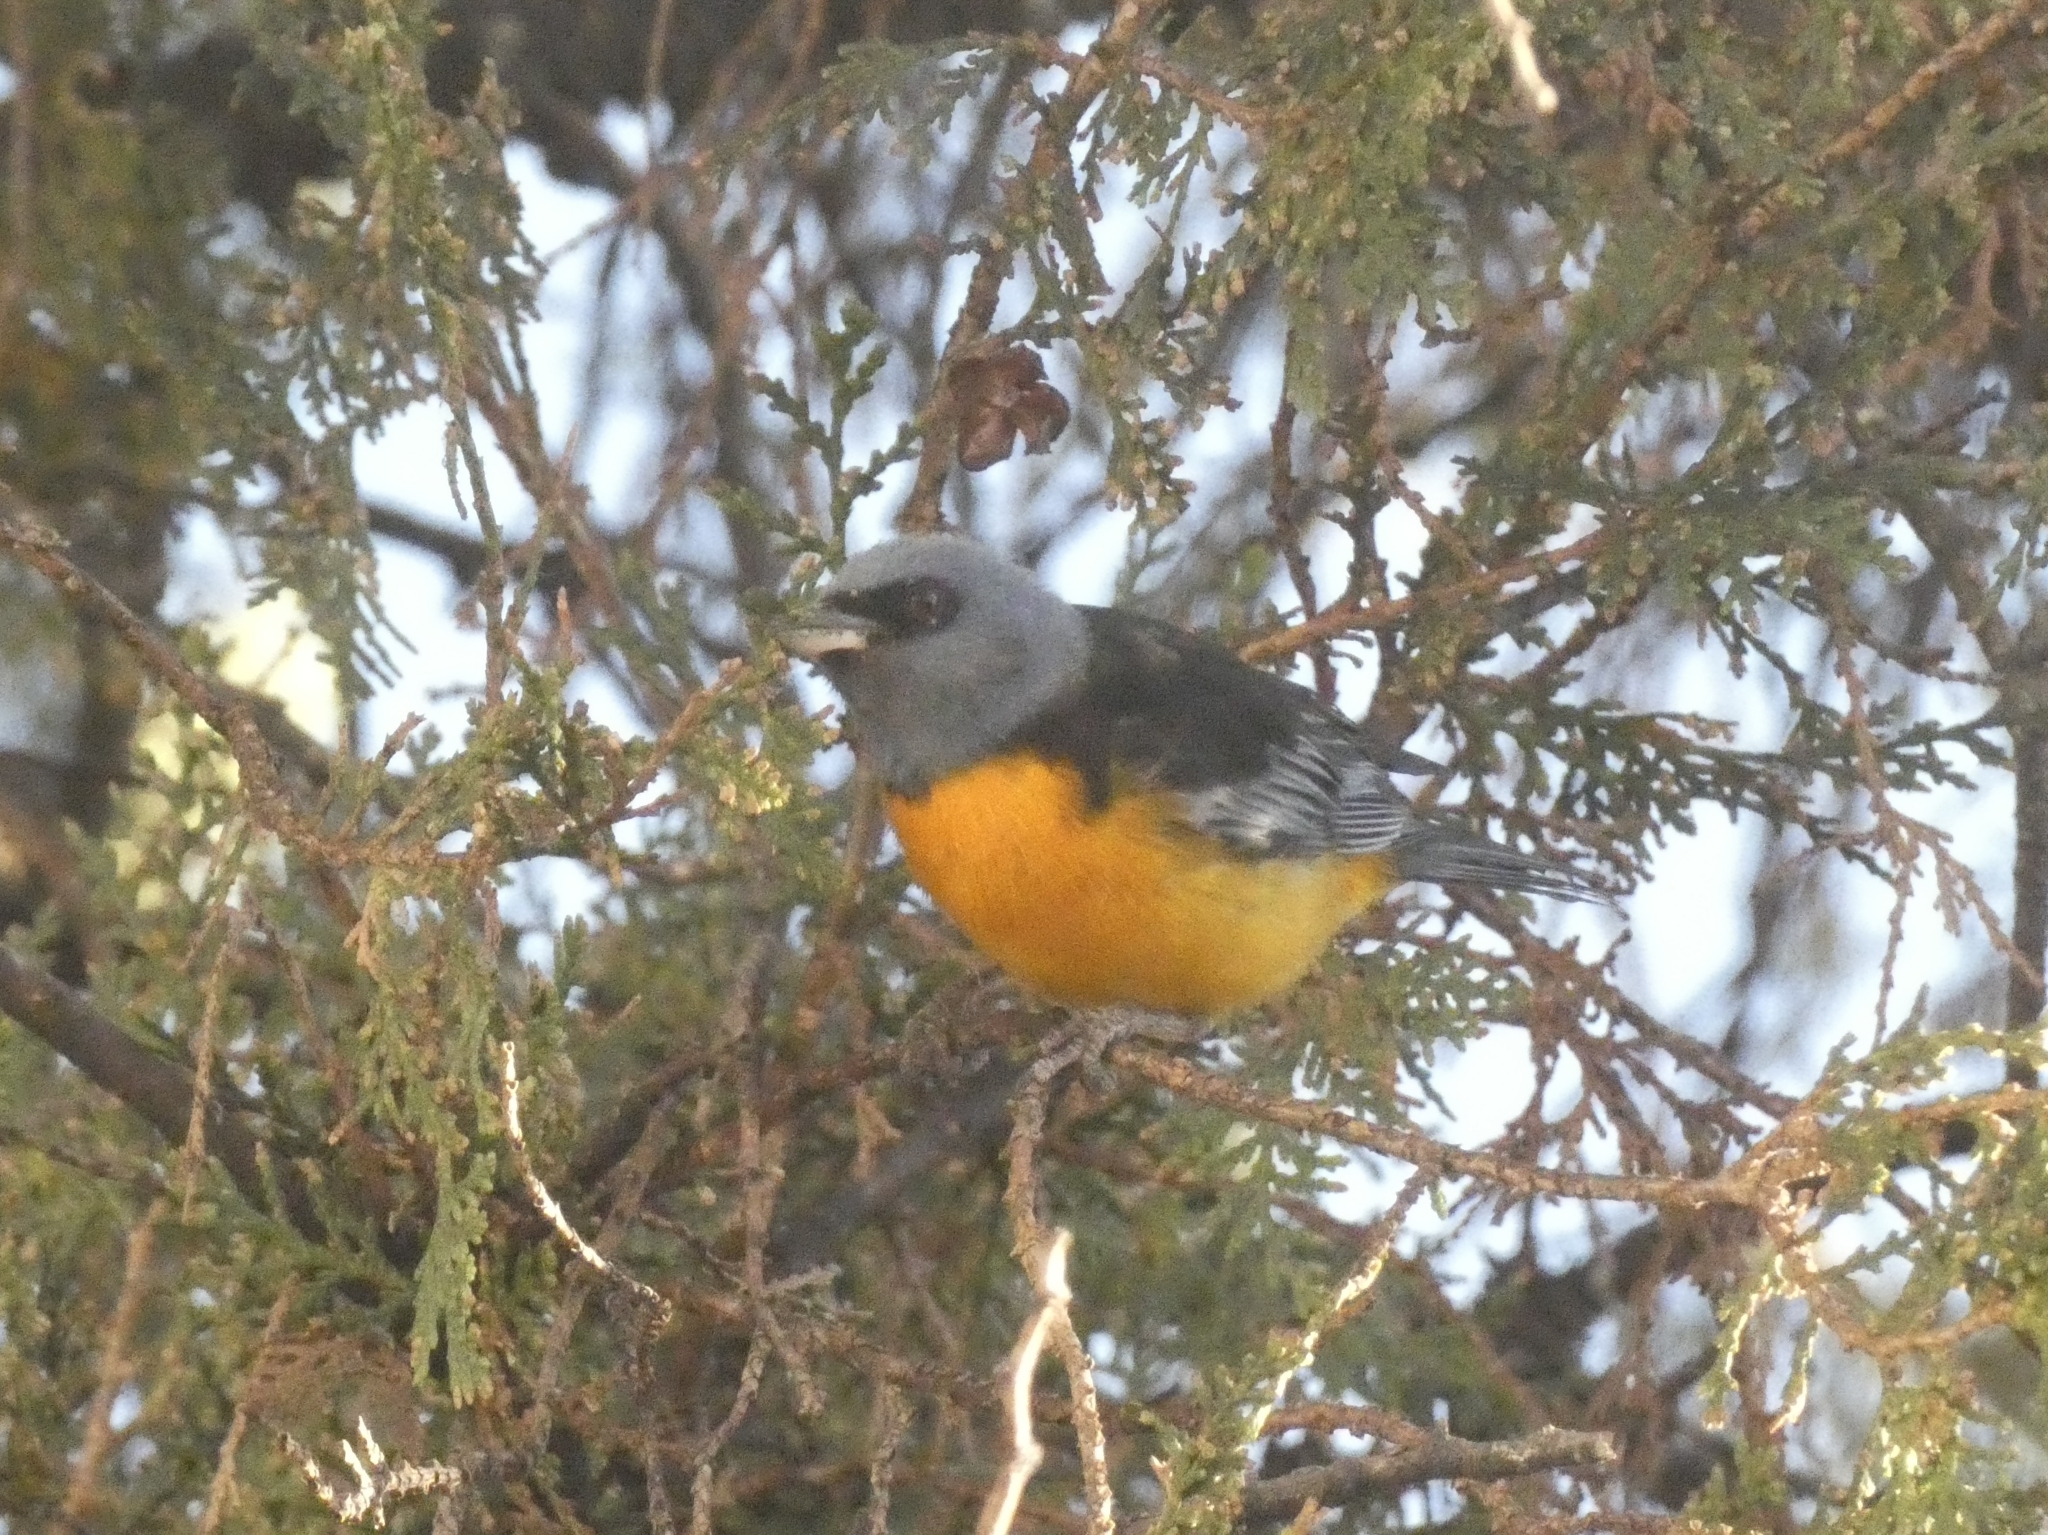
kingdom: Animalia
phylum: Chordata
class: Aves
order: Passeriformes
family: Thraupidae
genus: Rauenia
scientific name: Rauenia bonariensis
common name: Blue-and-yellow tanager
